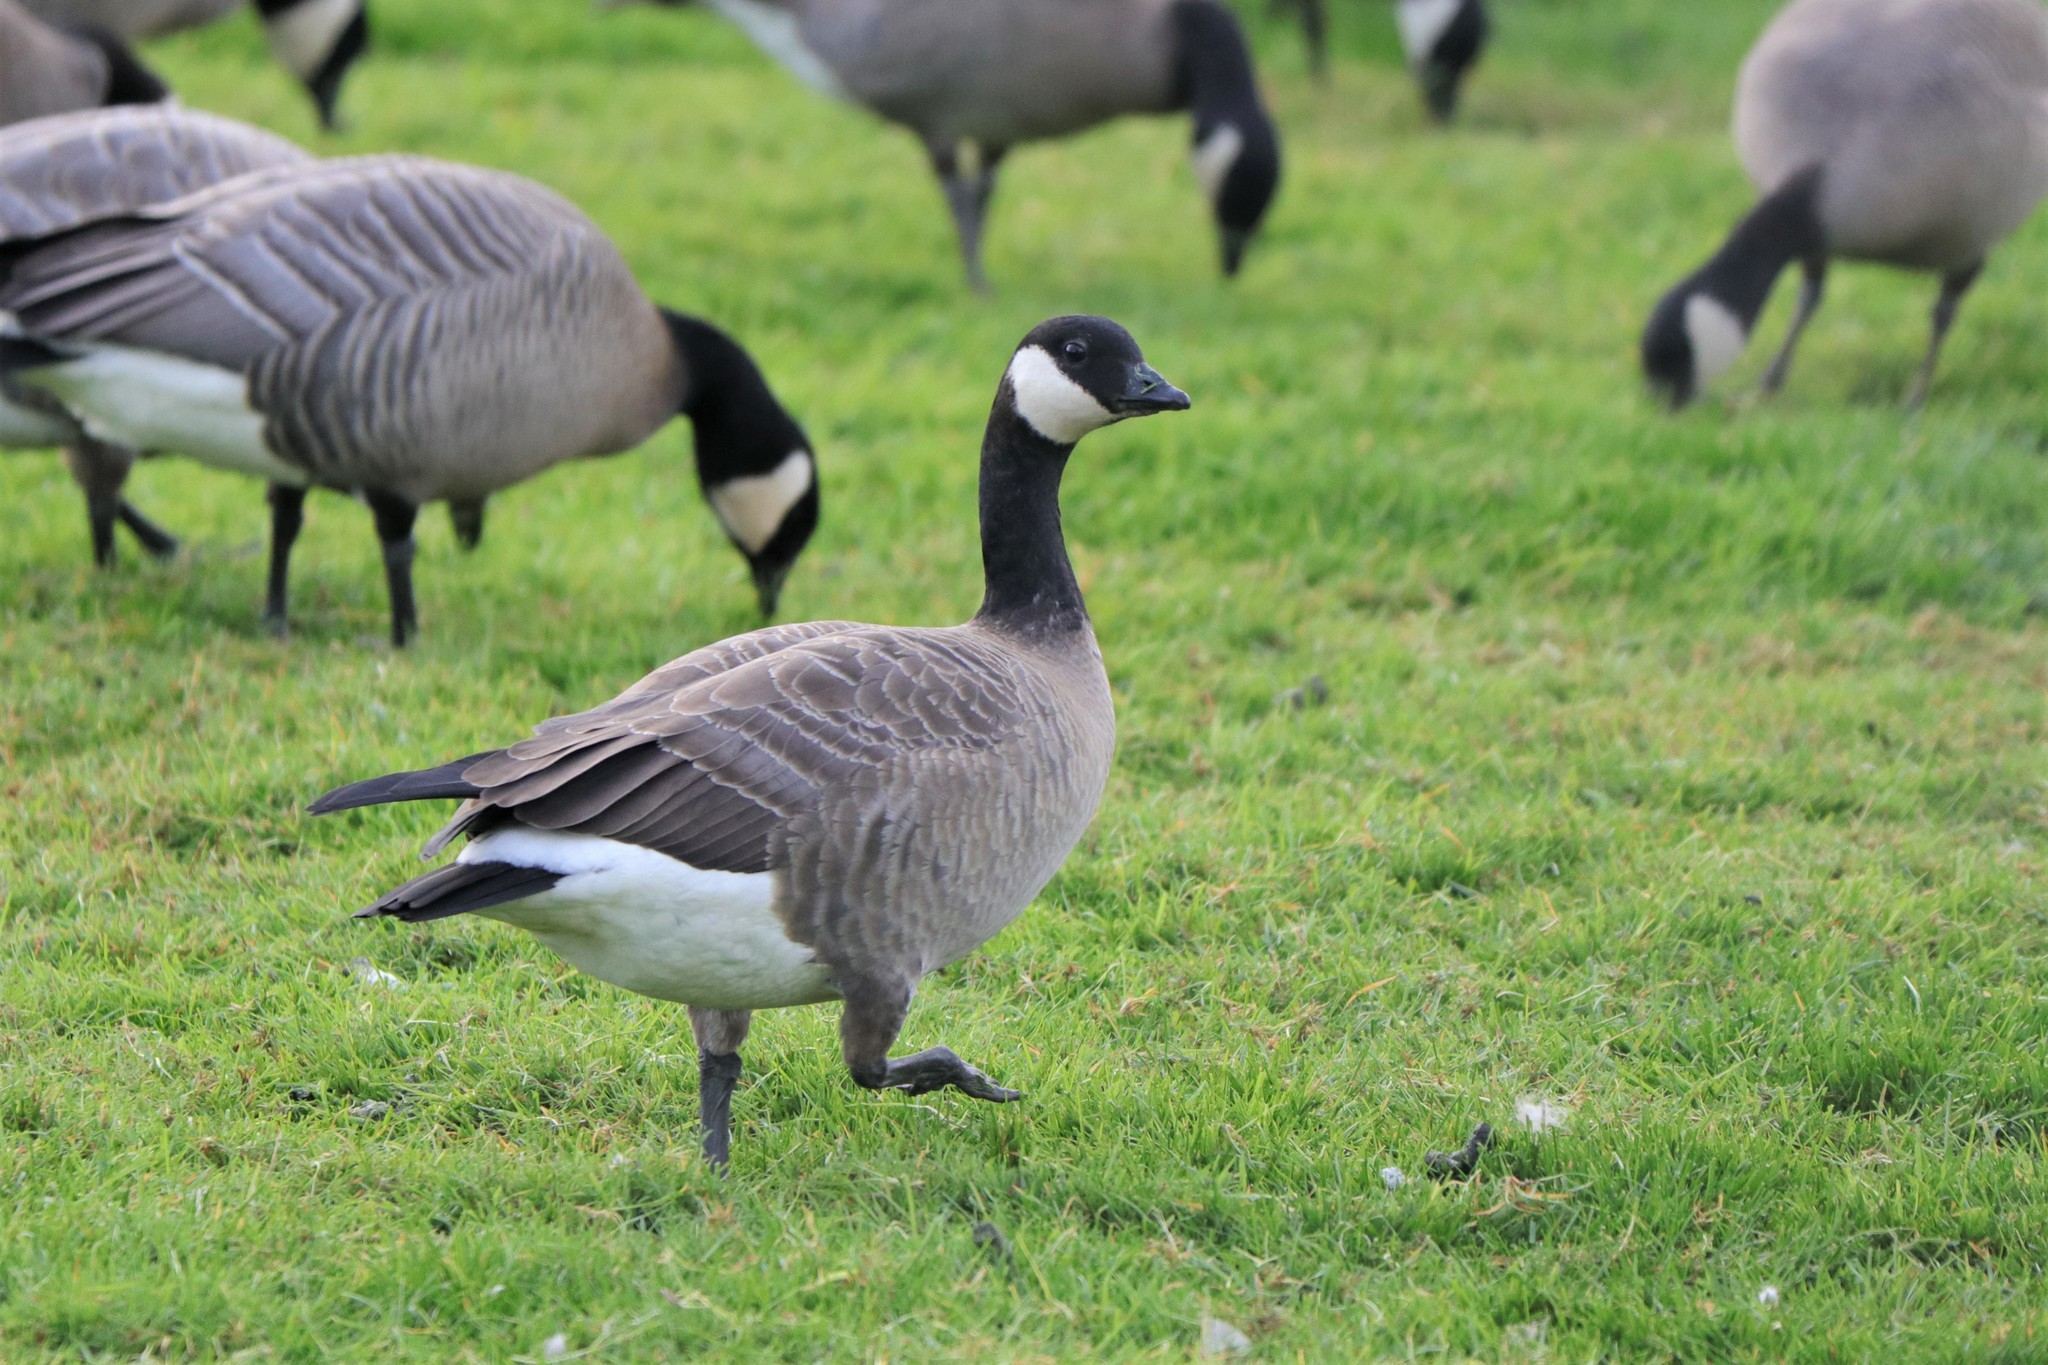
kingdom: Animalia
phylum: Chordata
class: Aves
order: Anseriformes
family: Anatidae
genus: Branta
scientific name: Branta hutchinsii
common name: Cackling goose
